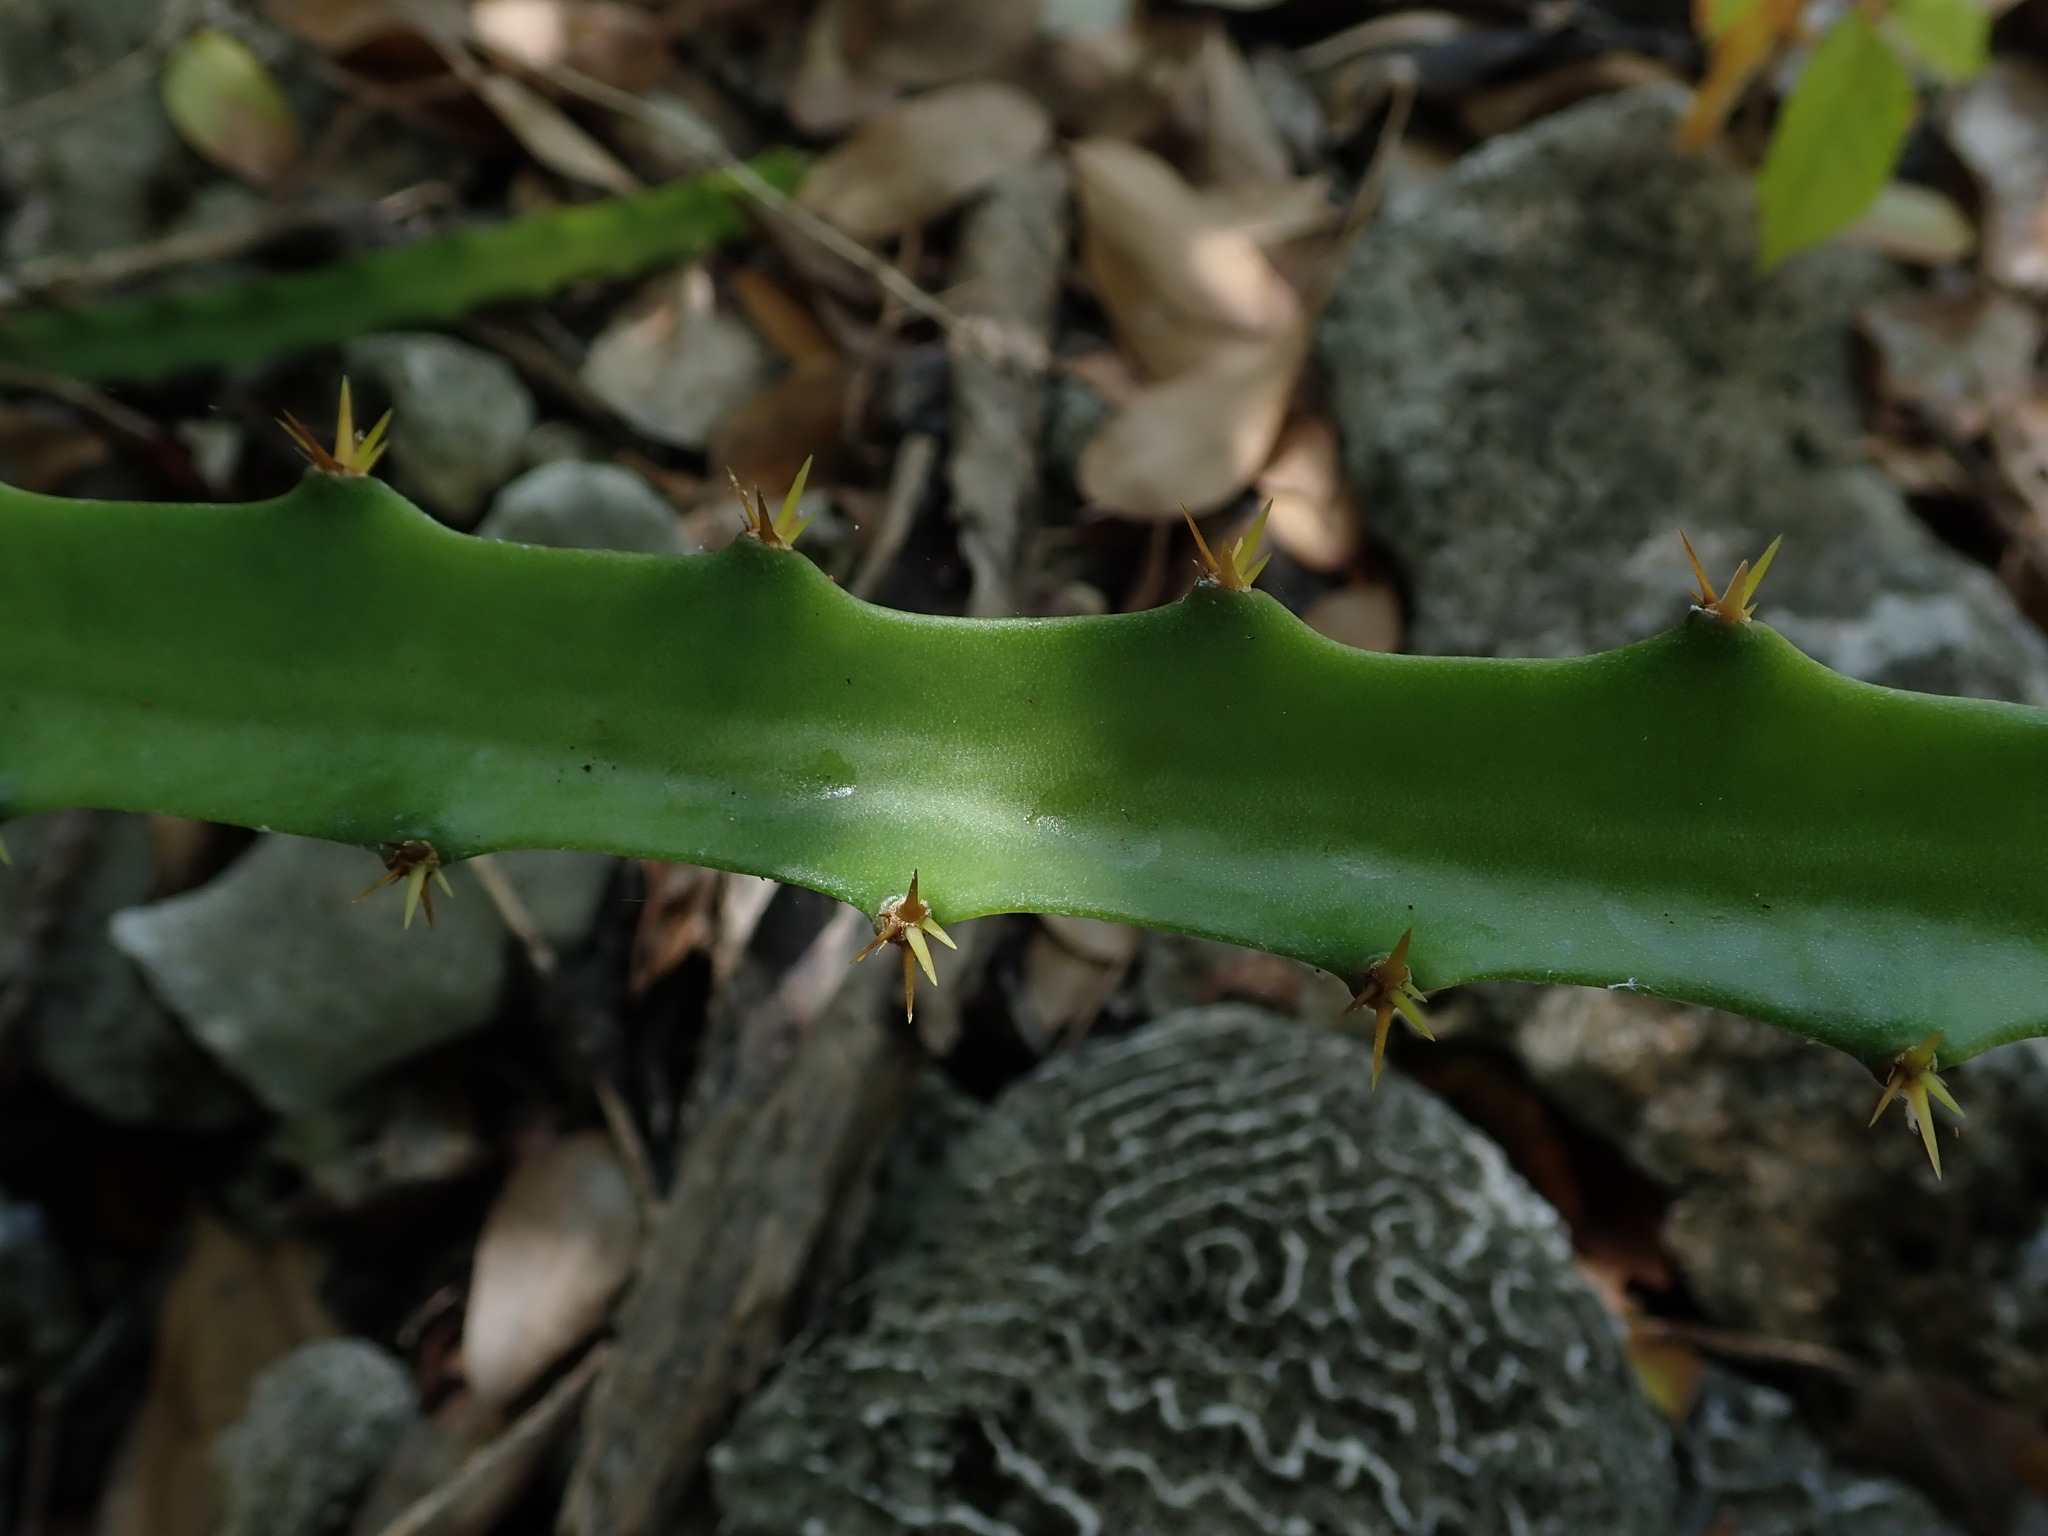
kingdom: Plantae
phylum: Tracheophyta
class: Magnoliopsida
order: Caryophyllales
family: Cactaceae
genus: Selenicereus
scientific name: Selenicereus triangularis
